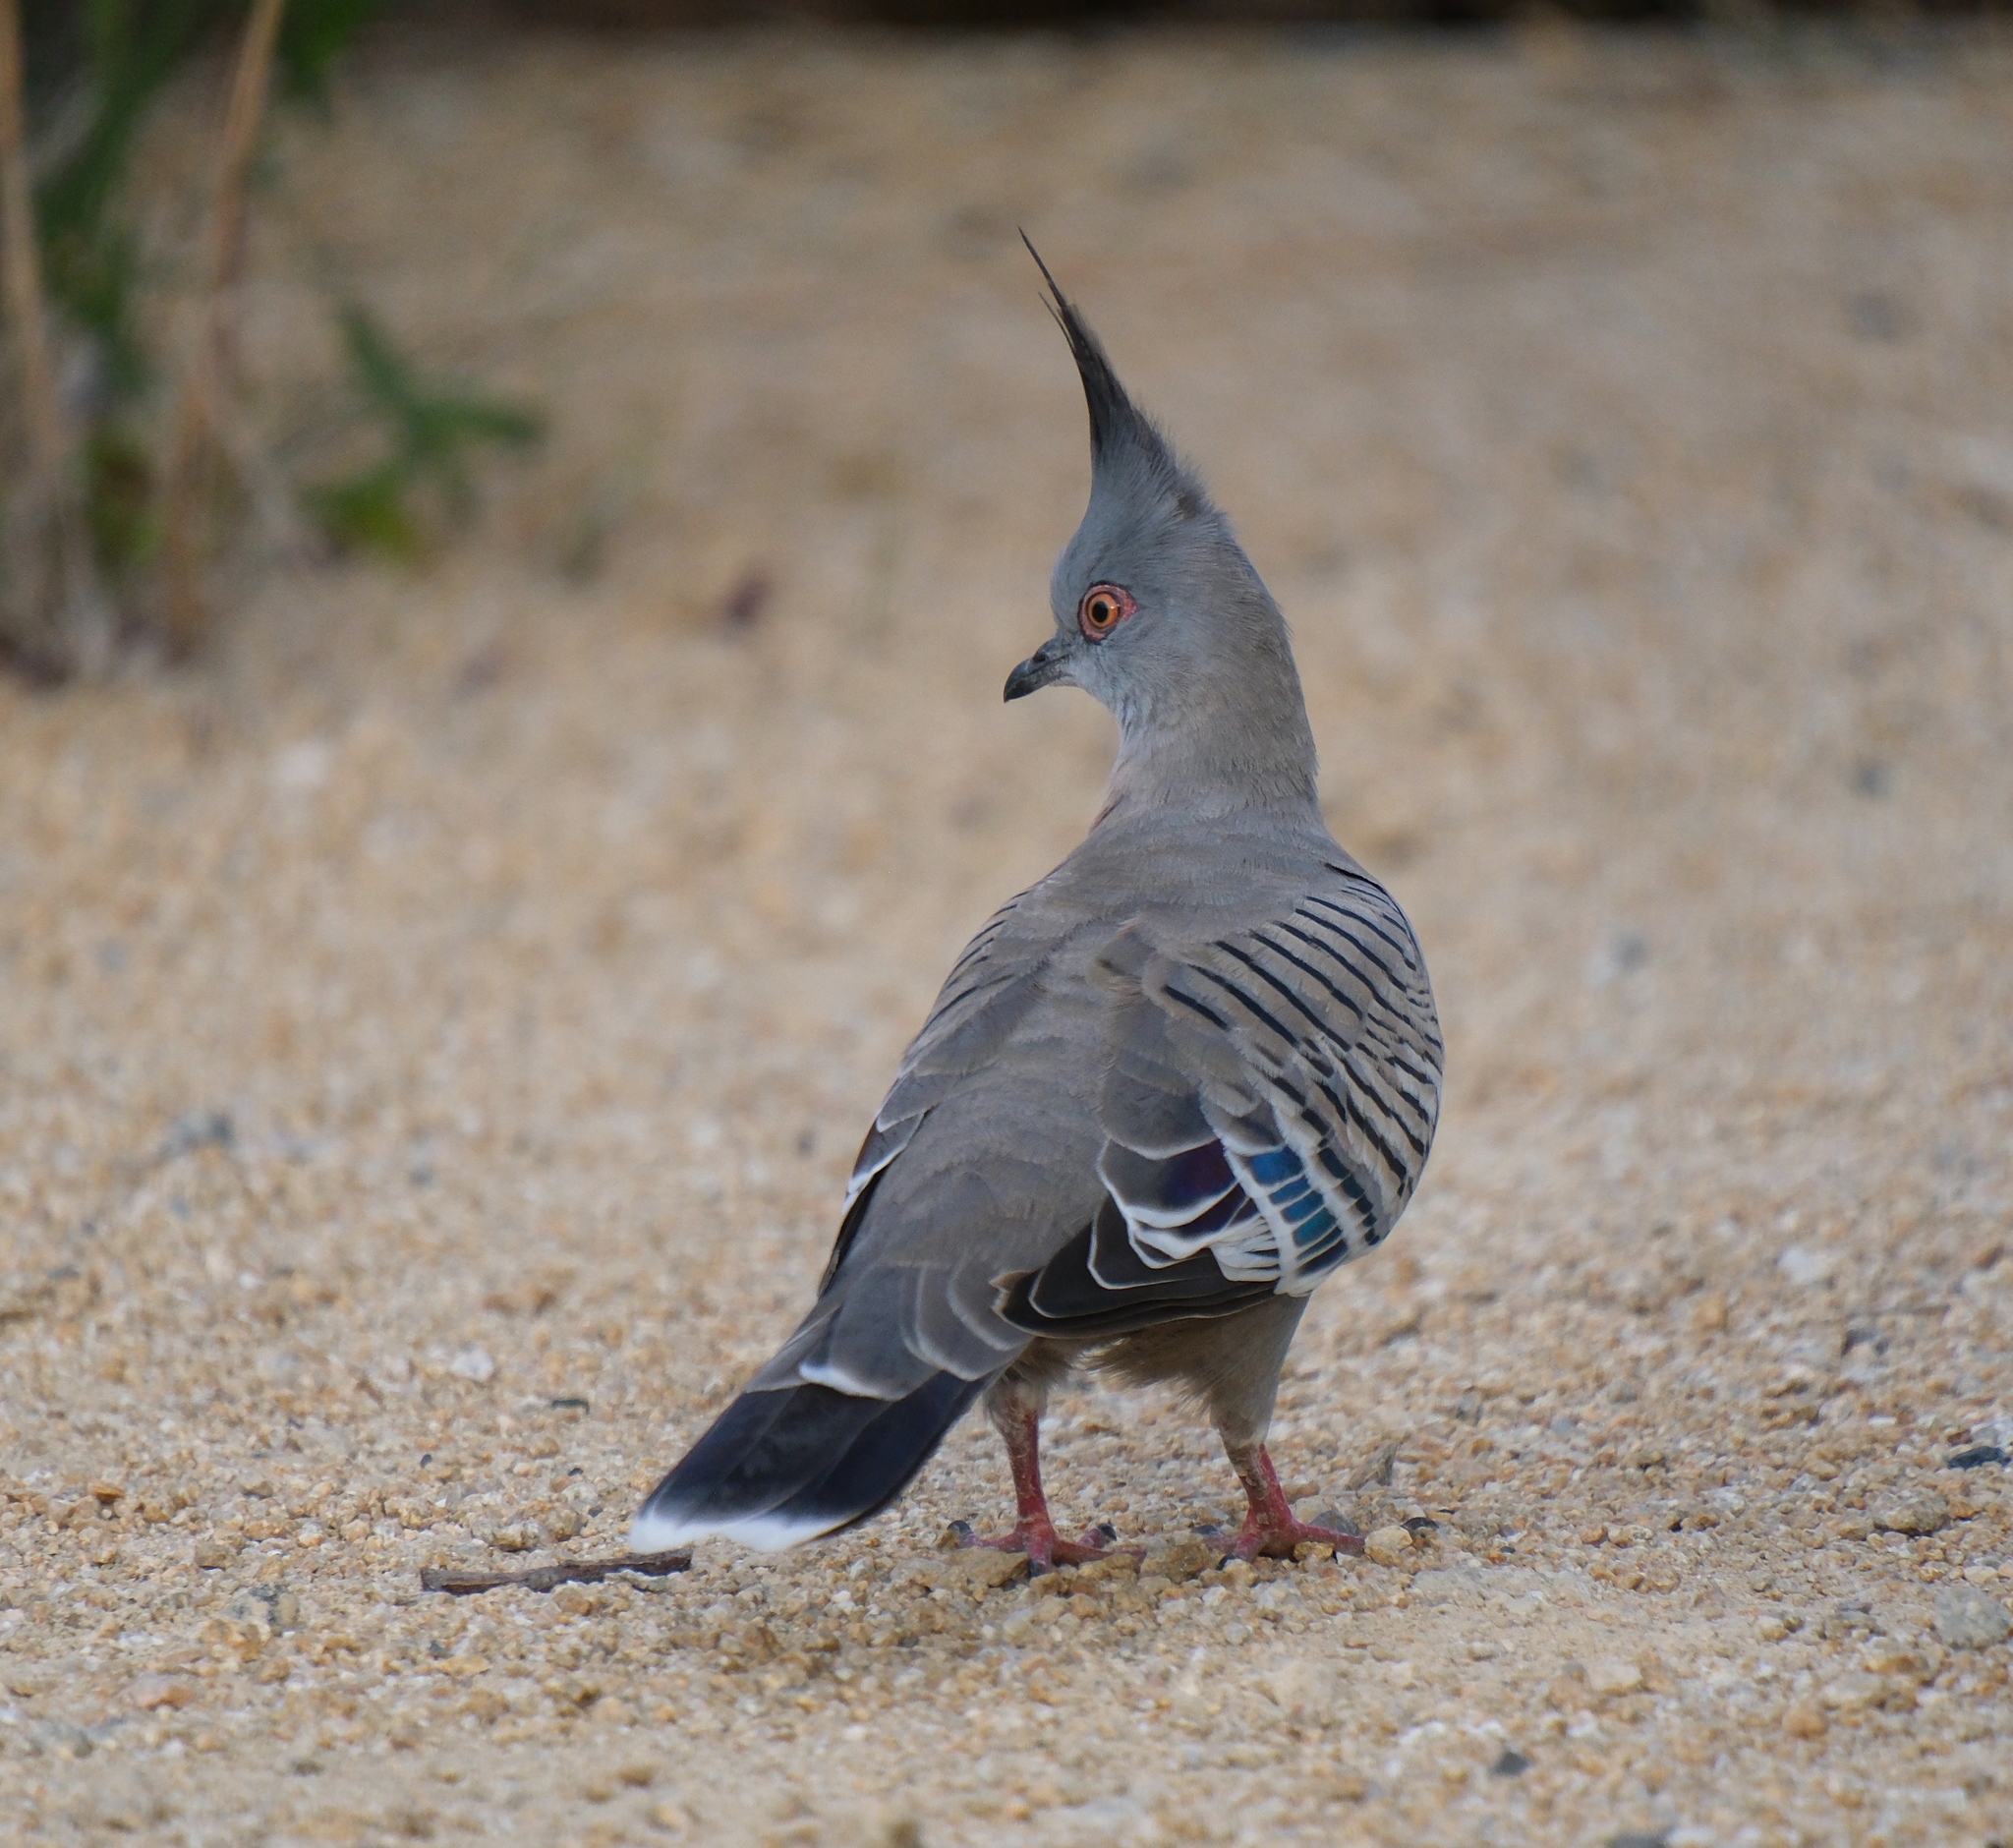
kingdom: Animalia
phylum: Chordata
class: Aves
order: Columbiformes
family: Columbidae
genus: Ocyphaps
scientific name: Ocyphaps lophotes
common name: Crested pigeon
